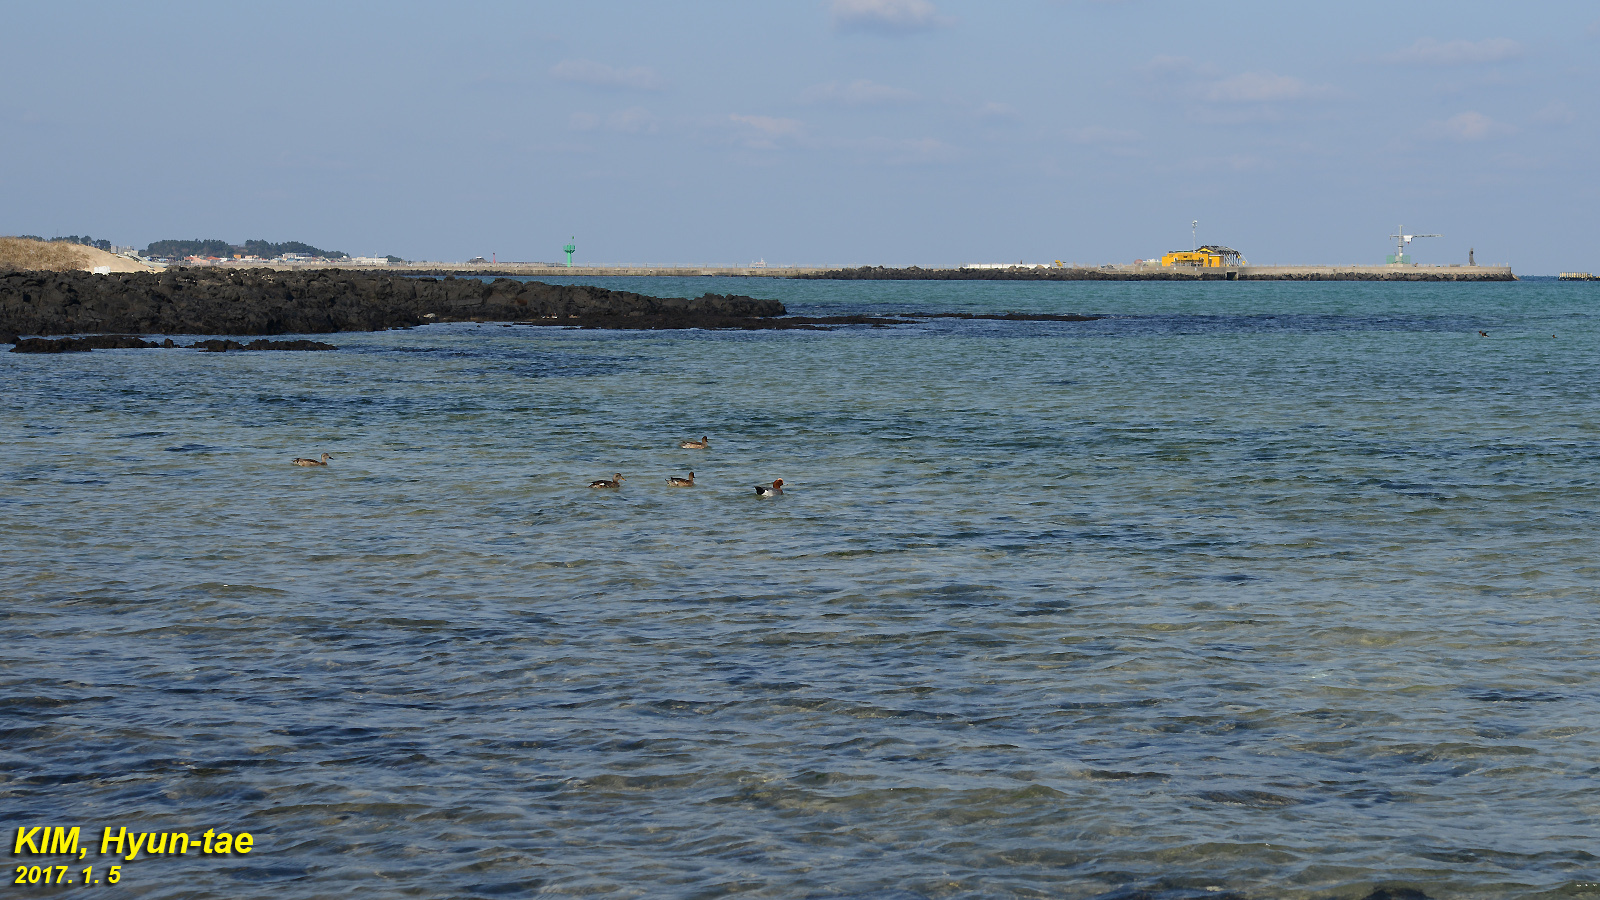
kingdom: Animalia
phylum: Chordata
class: Aves
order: Anseriformes
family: Anatidae
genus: Mareca
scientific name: Mareca penelope
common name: Eurasian wigeon
